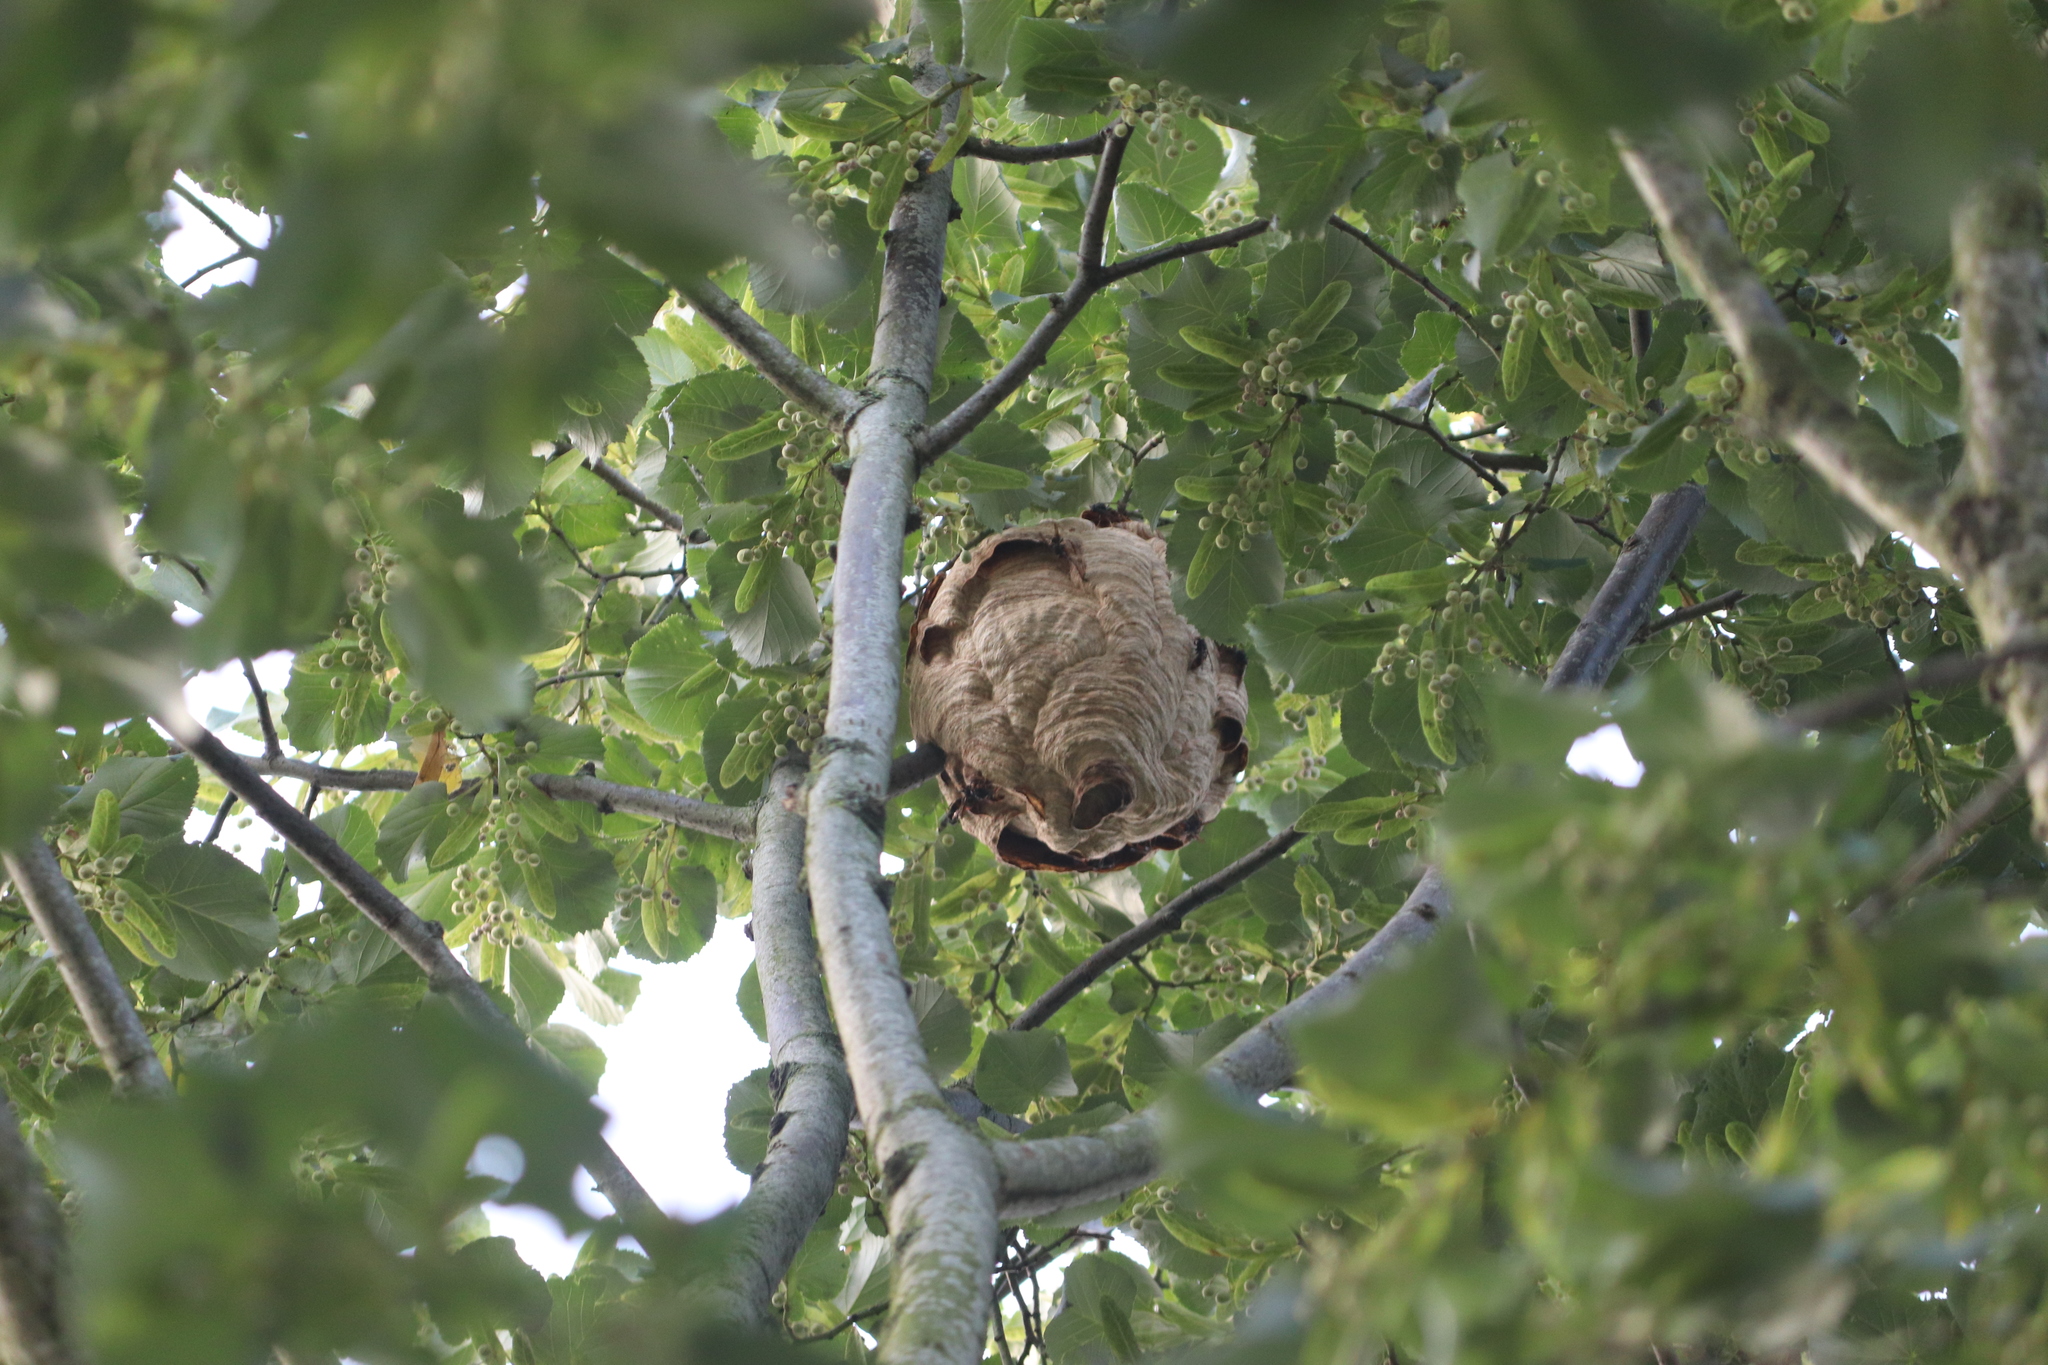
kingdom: Animalia
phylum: Arthropoda
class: Insecta
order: Hymenoptera
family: Vespidae
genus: Vespa
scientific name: Vespa velutina
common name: Asian hornet
